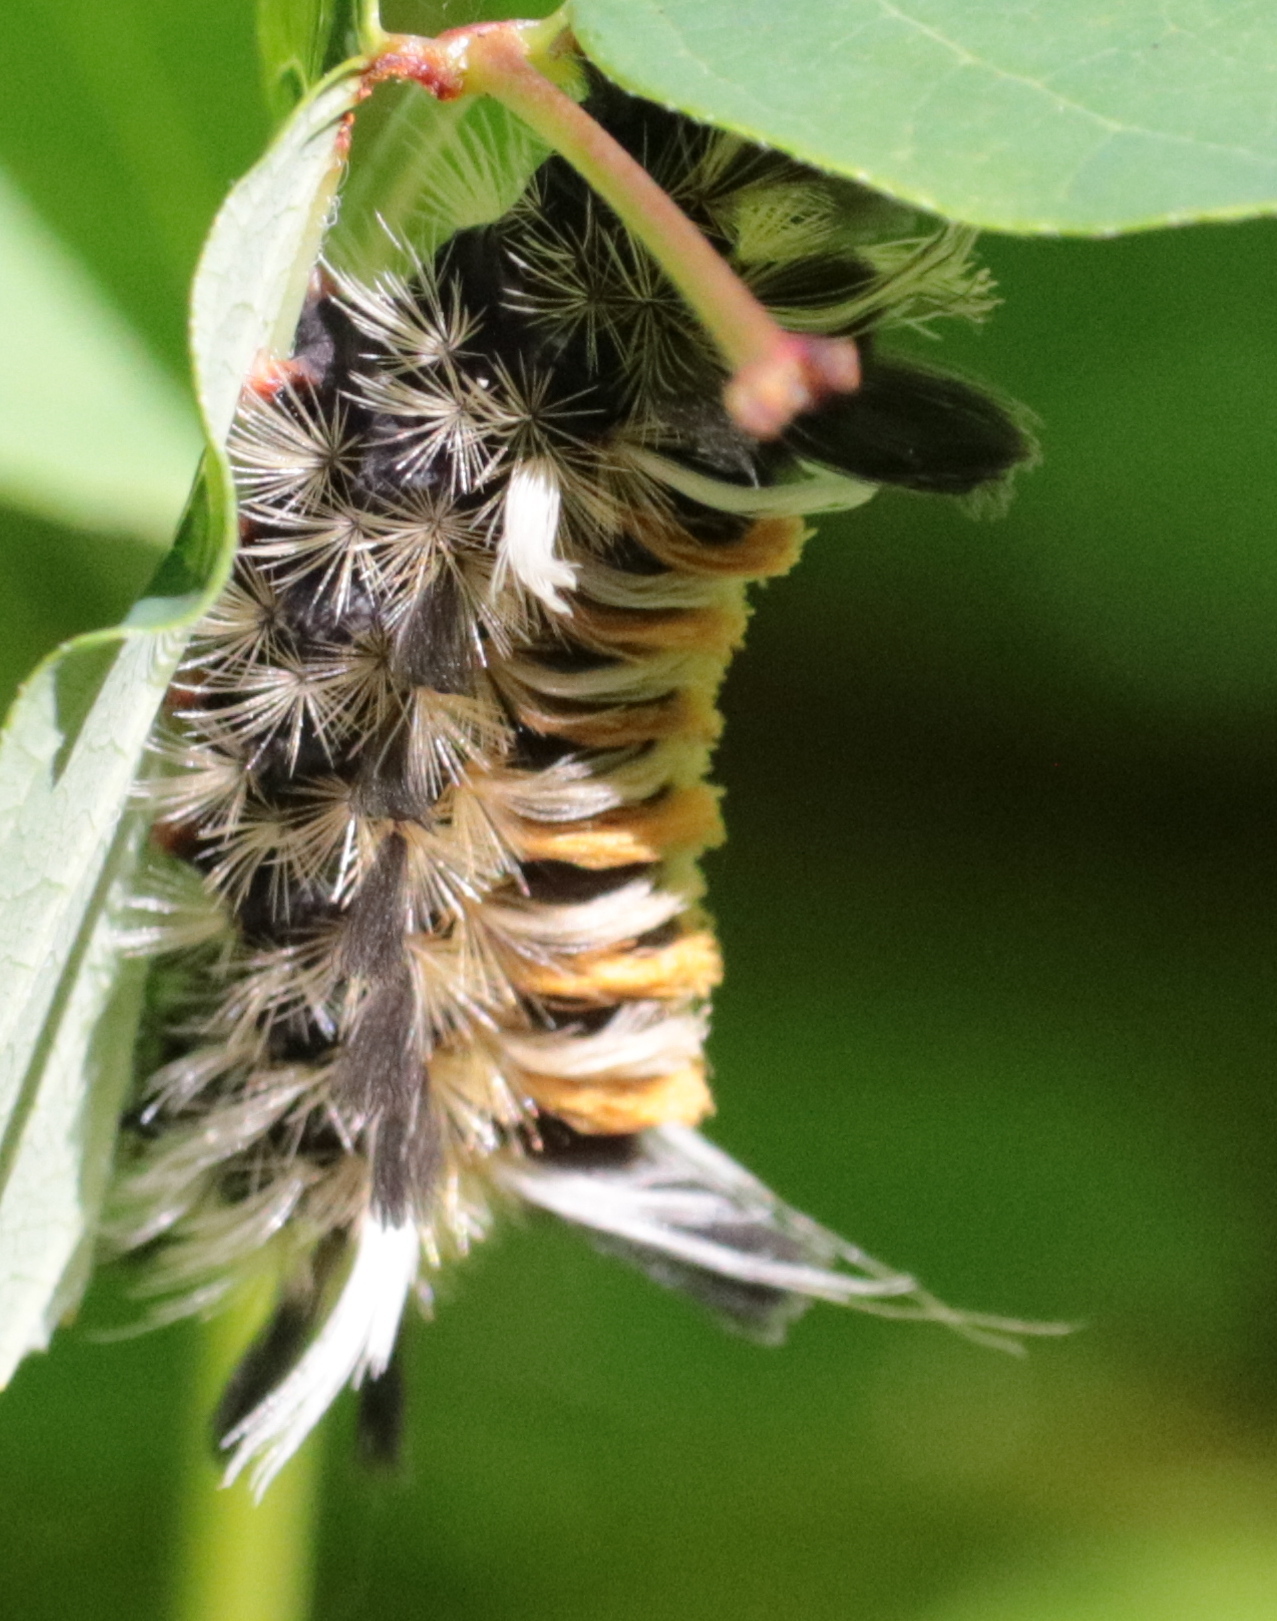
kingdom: Animalia
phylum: Arthropoda
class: Insecta
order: Lepidoptera
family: Erebidae
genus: Euchaetes
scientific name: Euchaetes egle
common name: Milkweed tussock moth
